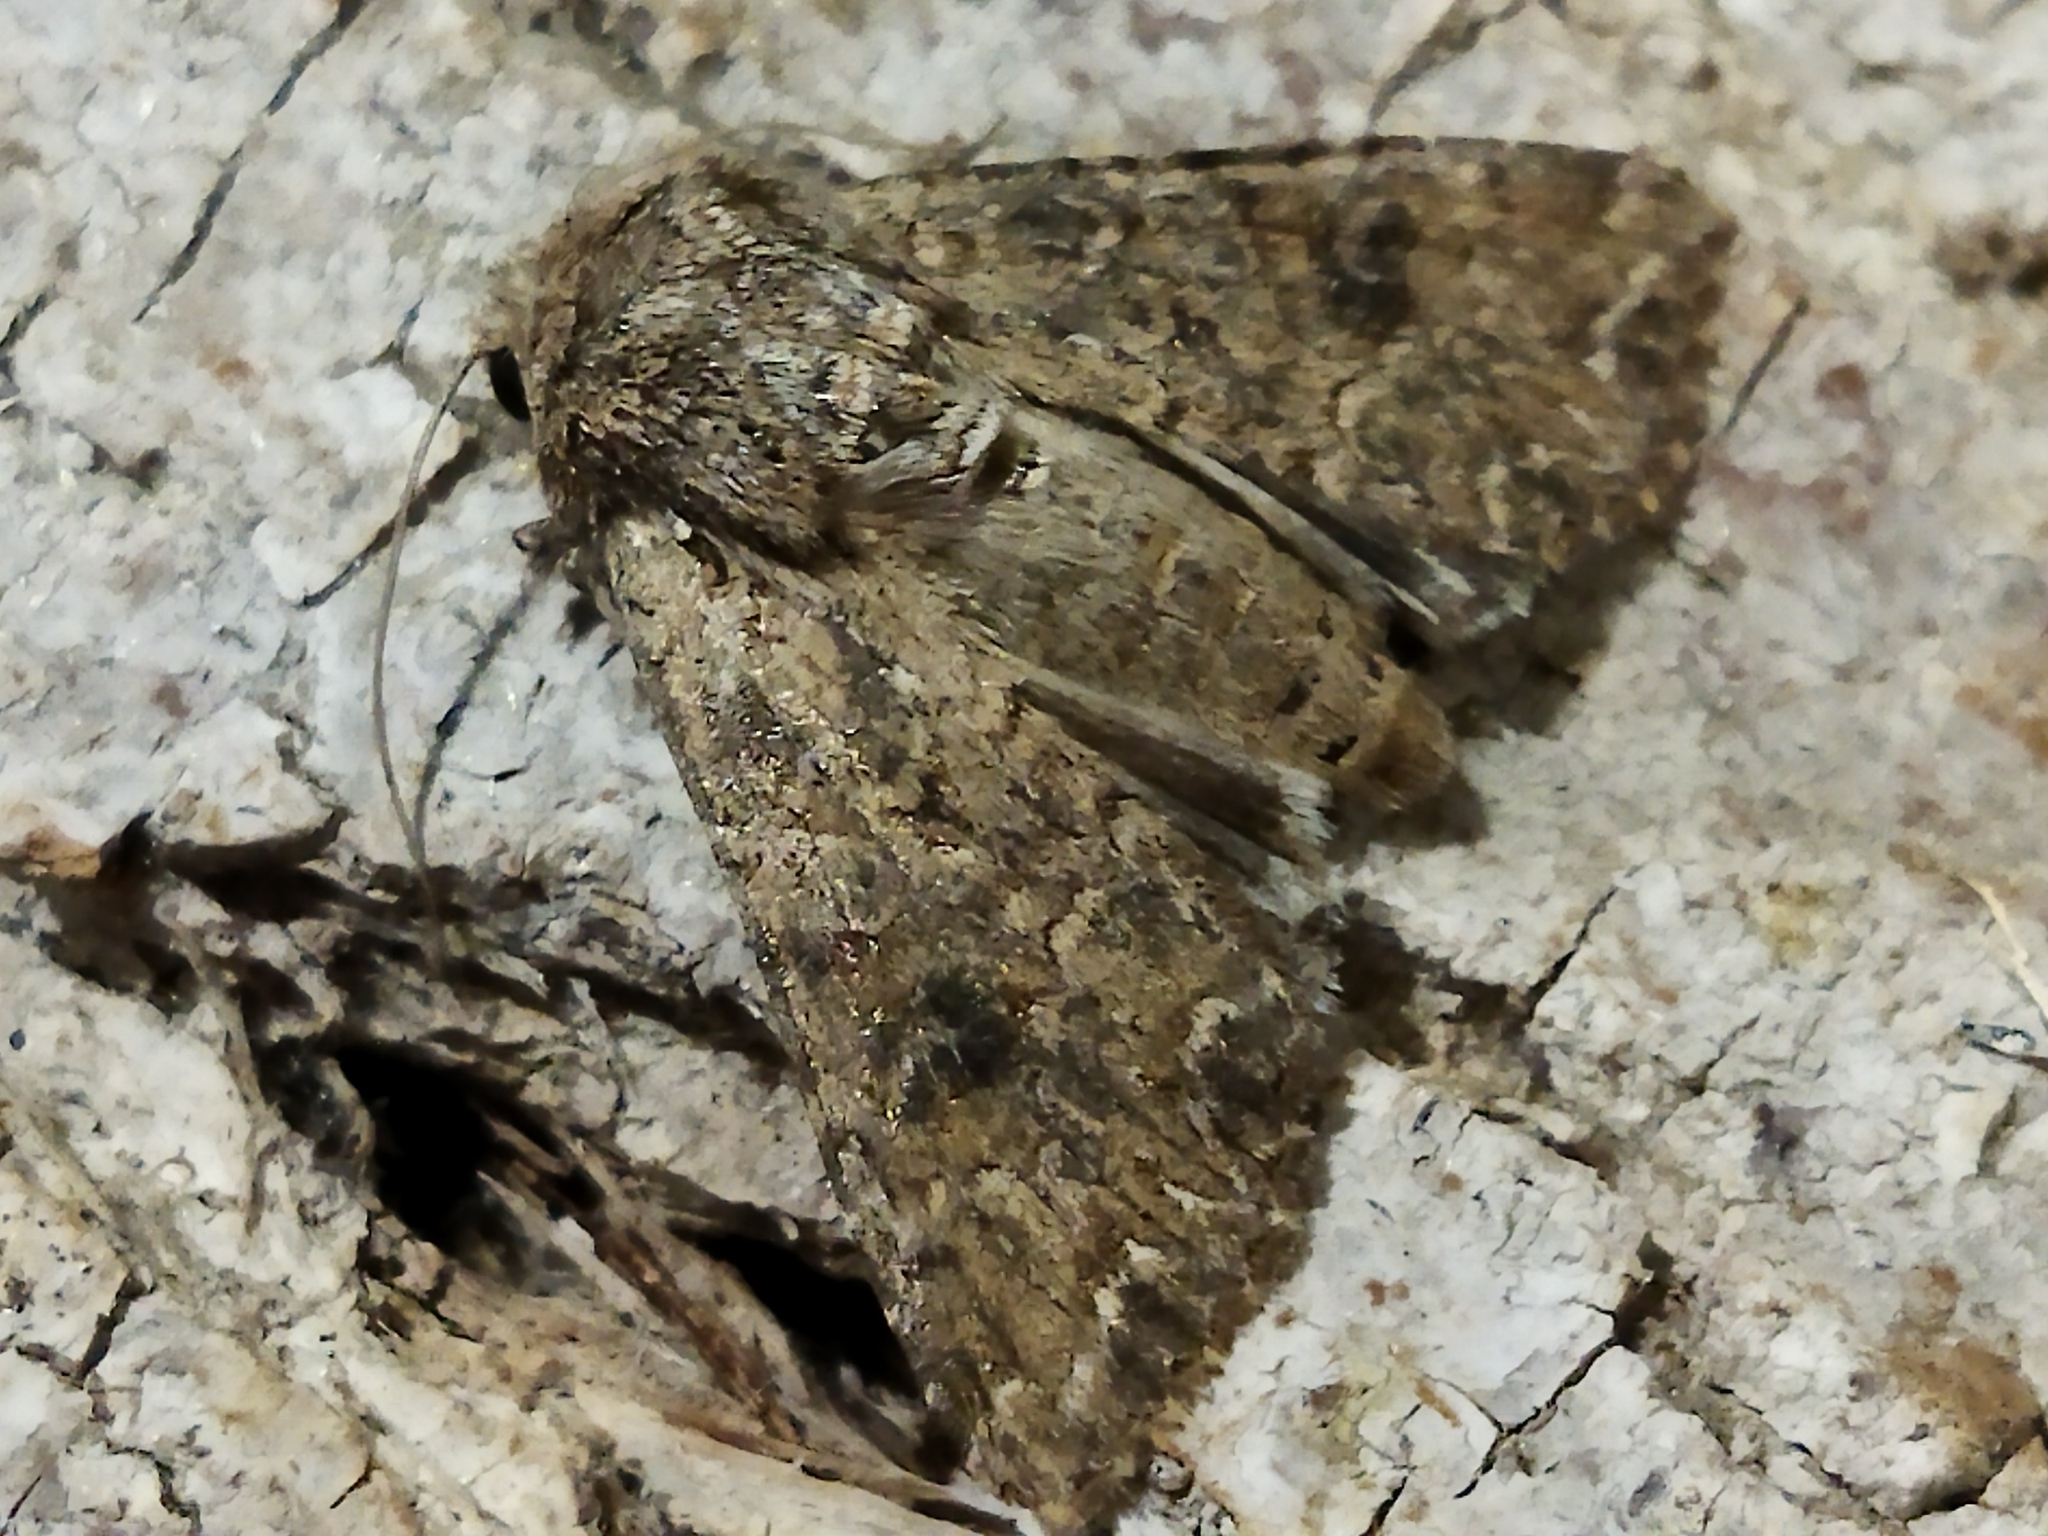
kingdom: Animalia
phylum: Arthropoda
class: Insecta
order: Lepidoptera
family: Noctuidae
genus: Anarta
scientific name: Anarta trifolii
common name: Clover cutworm moth
